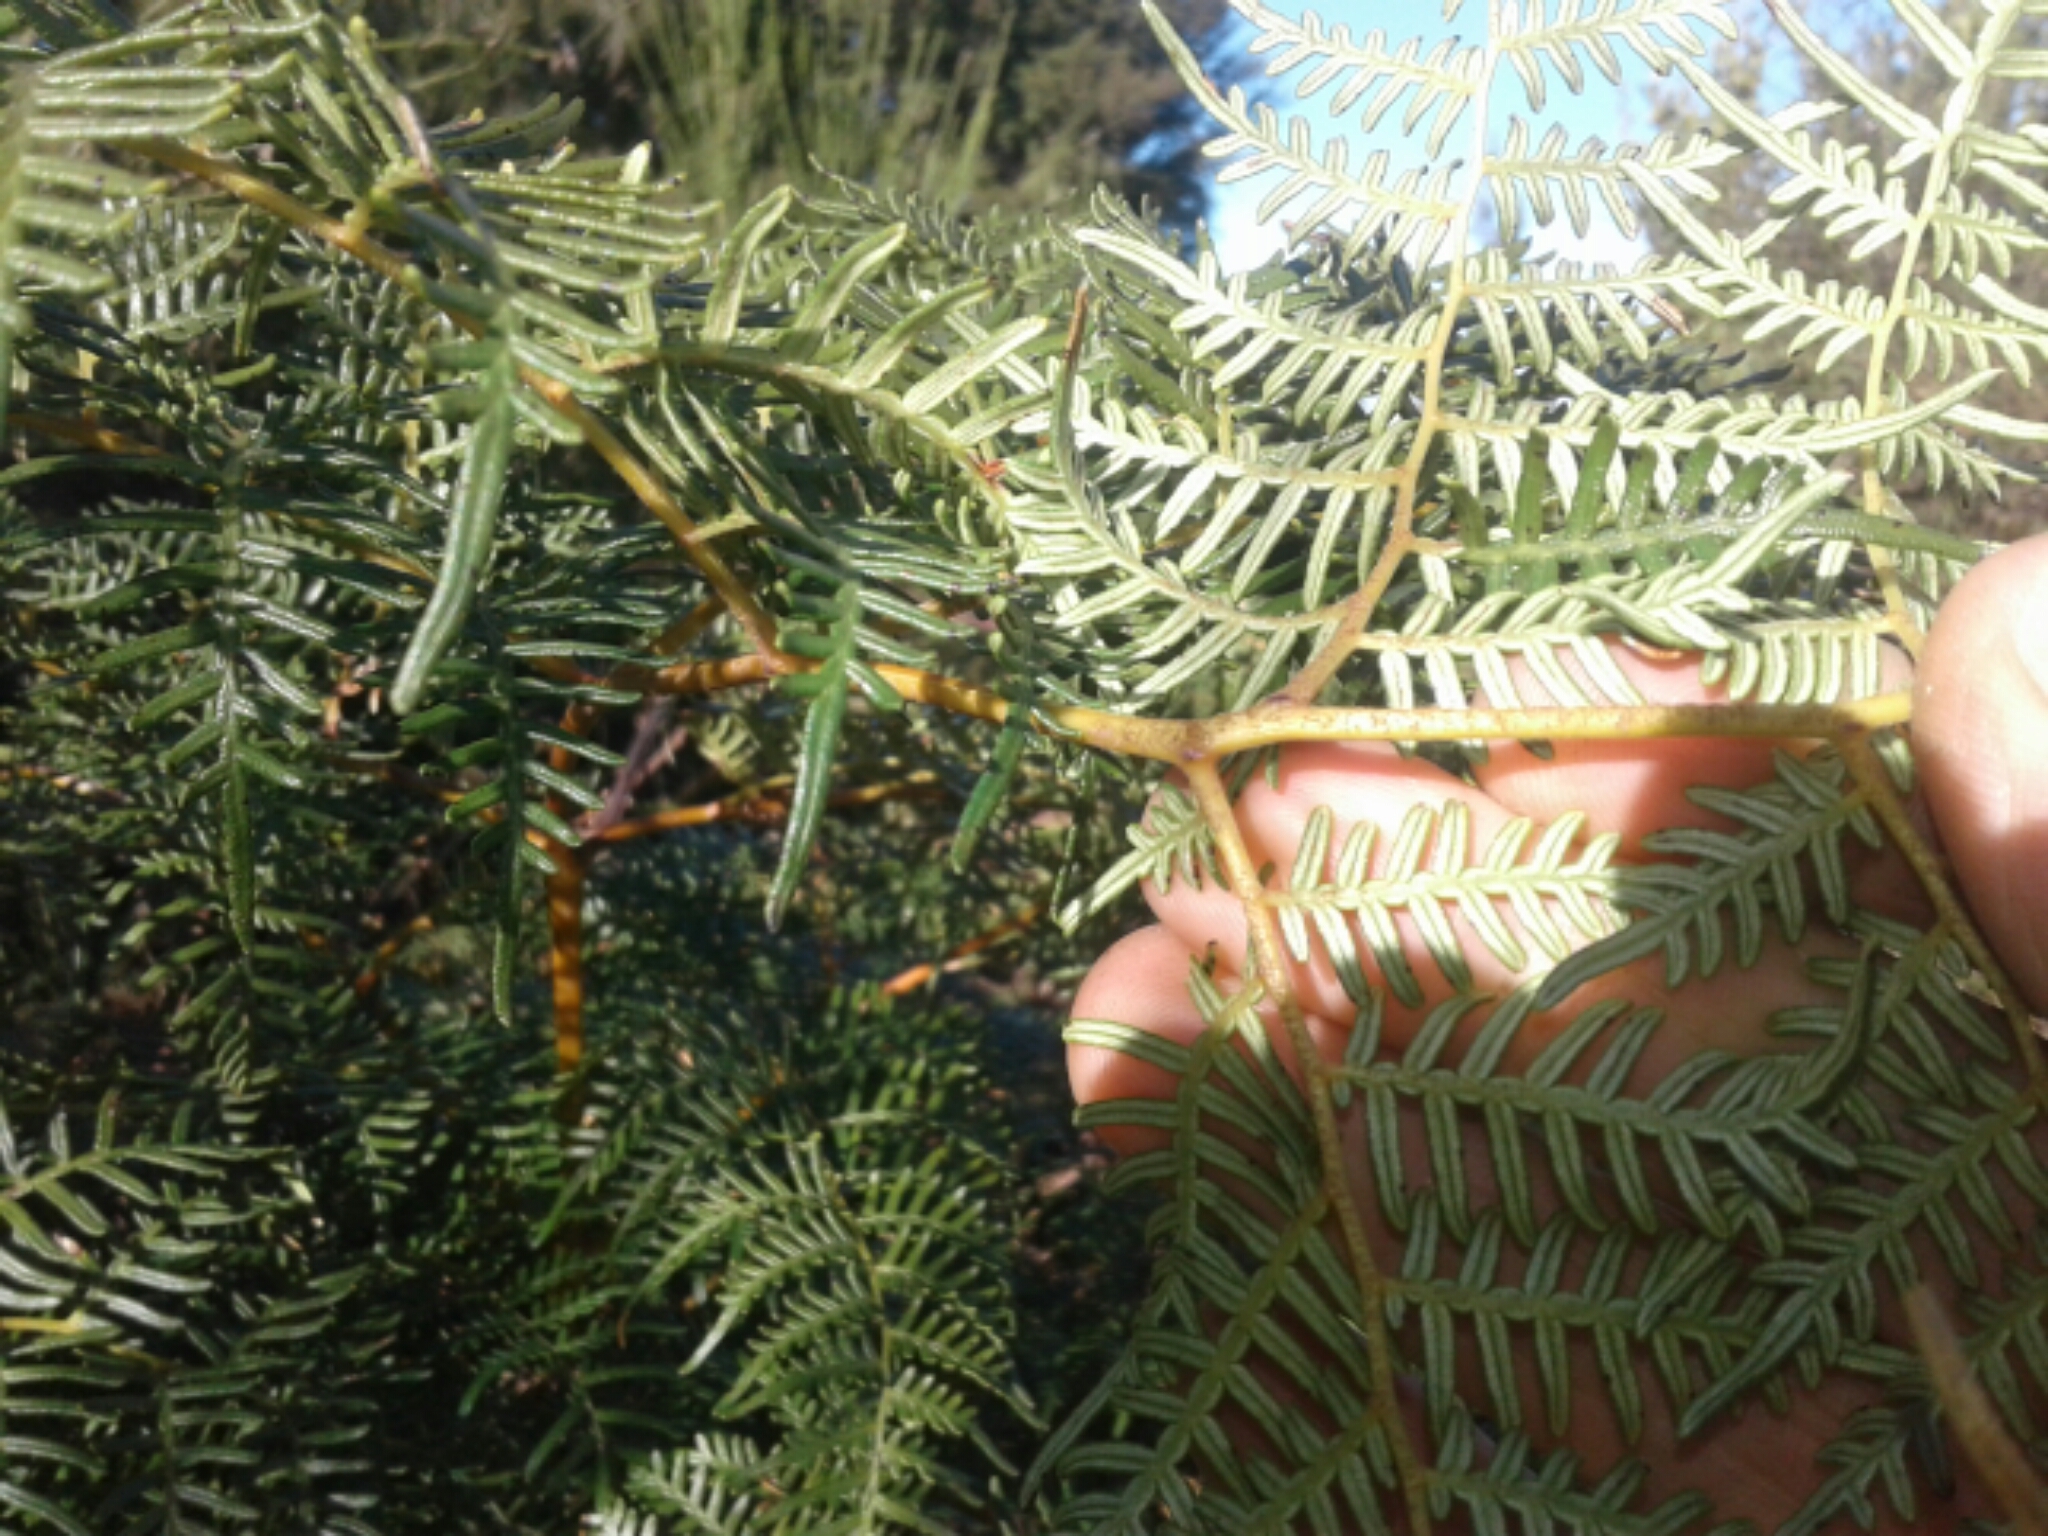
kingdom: Plantae
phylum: Tracheophyta
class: Polypodiopsida
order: Polypodiales
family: Dennstaedtiaceae
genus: Pteridium
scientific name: Pteridium esculentum
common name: Bracken fern
